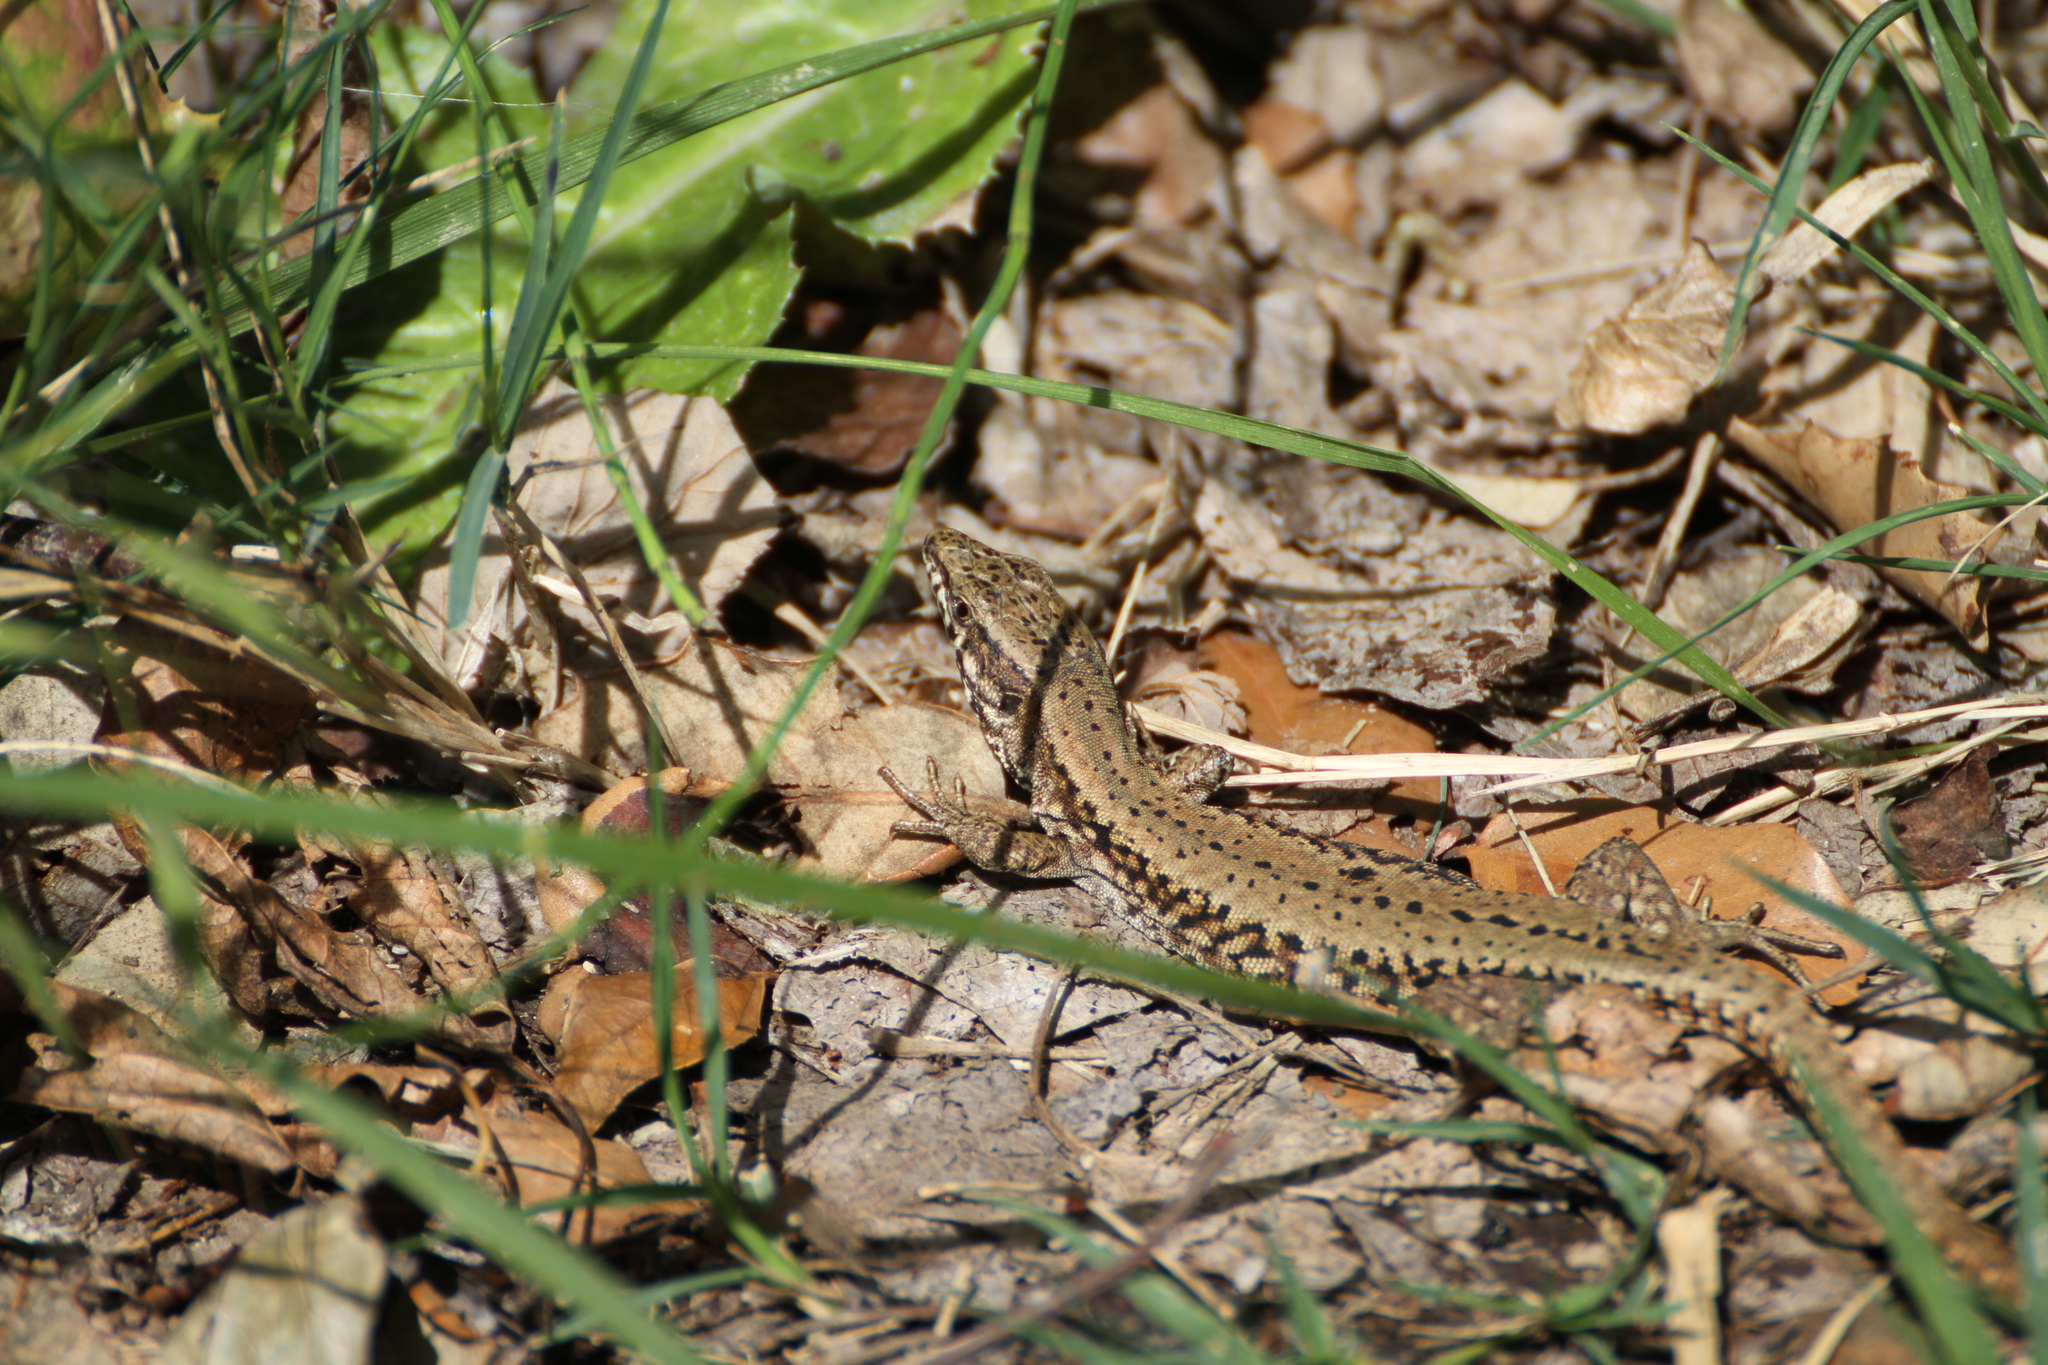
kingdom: Animalia
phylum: Chordata
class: Squamata
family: Lacertidae
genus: Podarcis
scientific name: Podarcis muralis
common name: Common wall lizard
